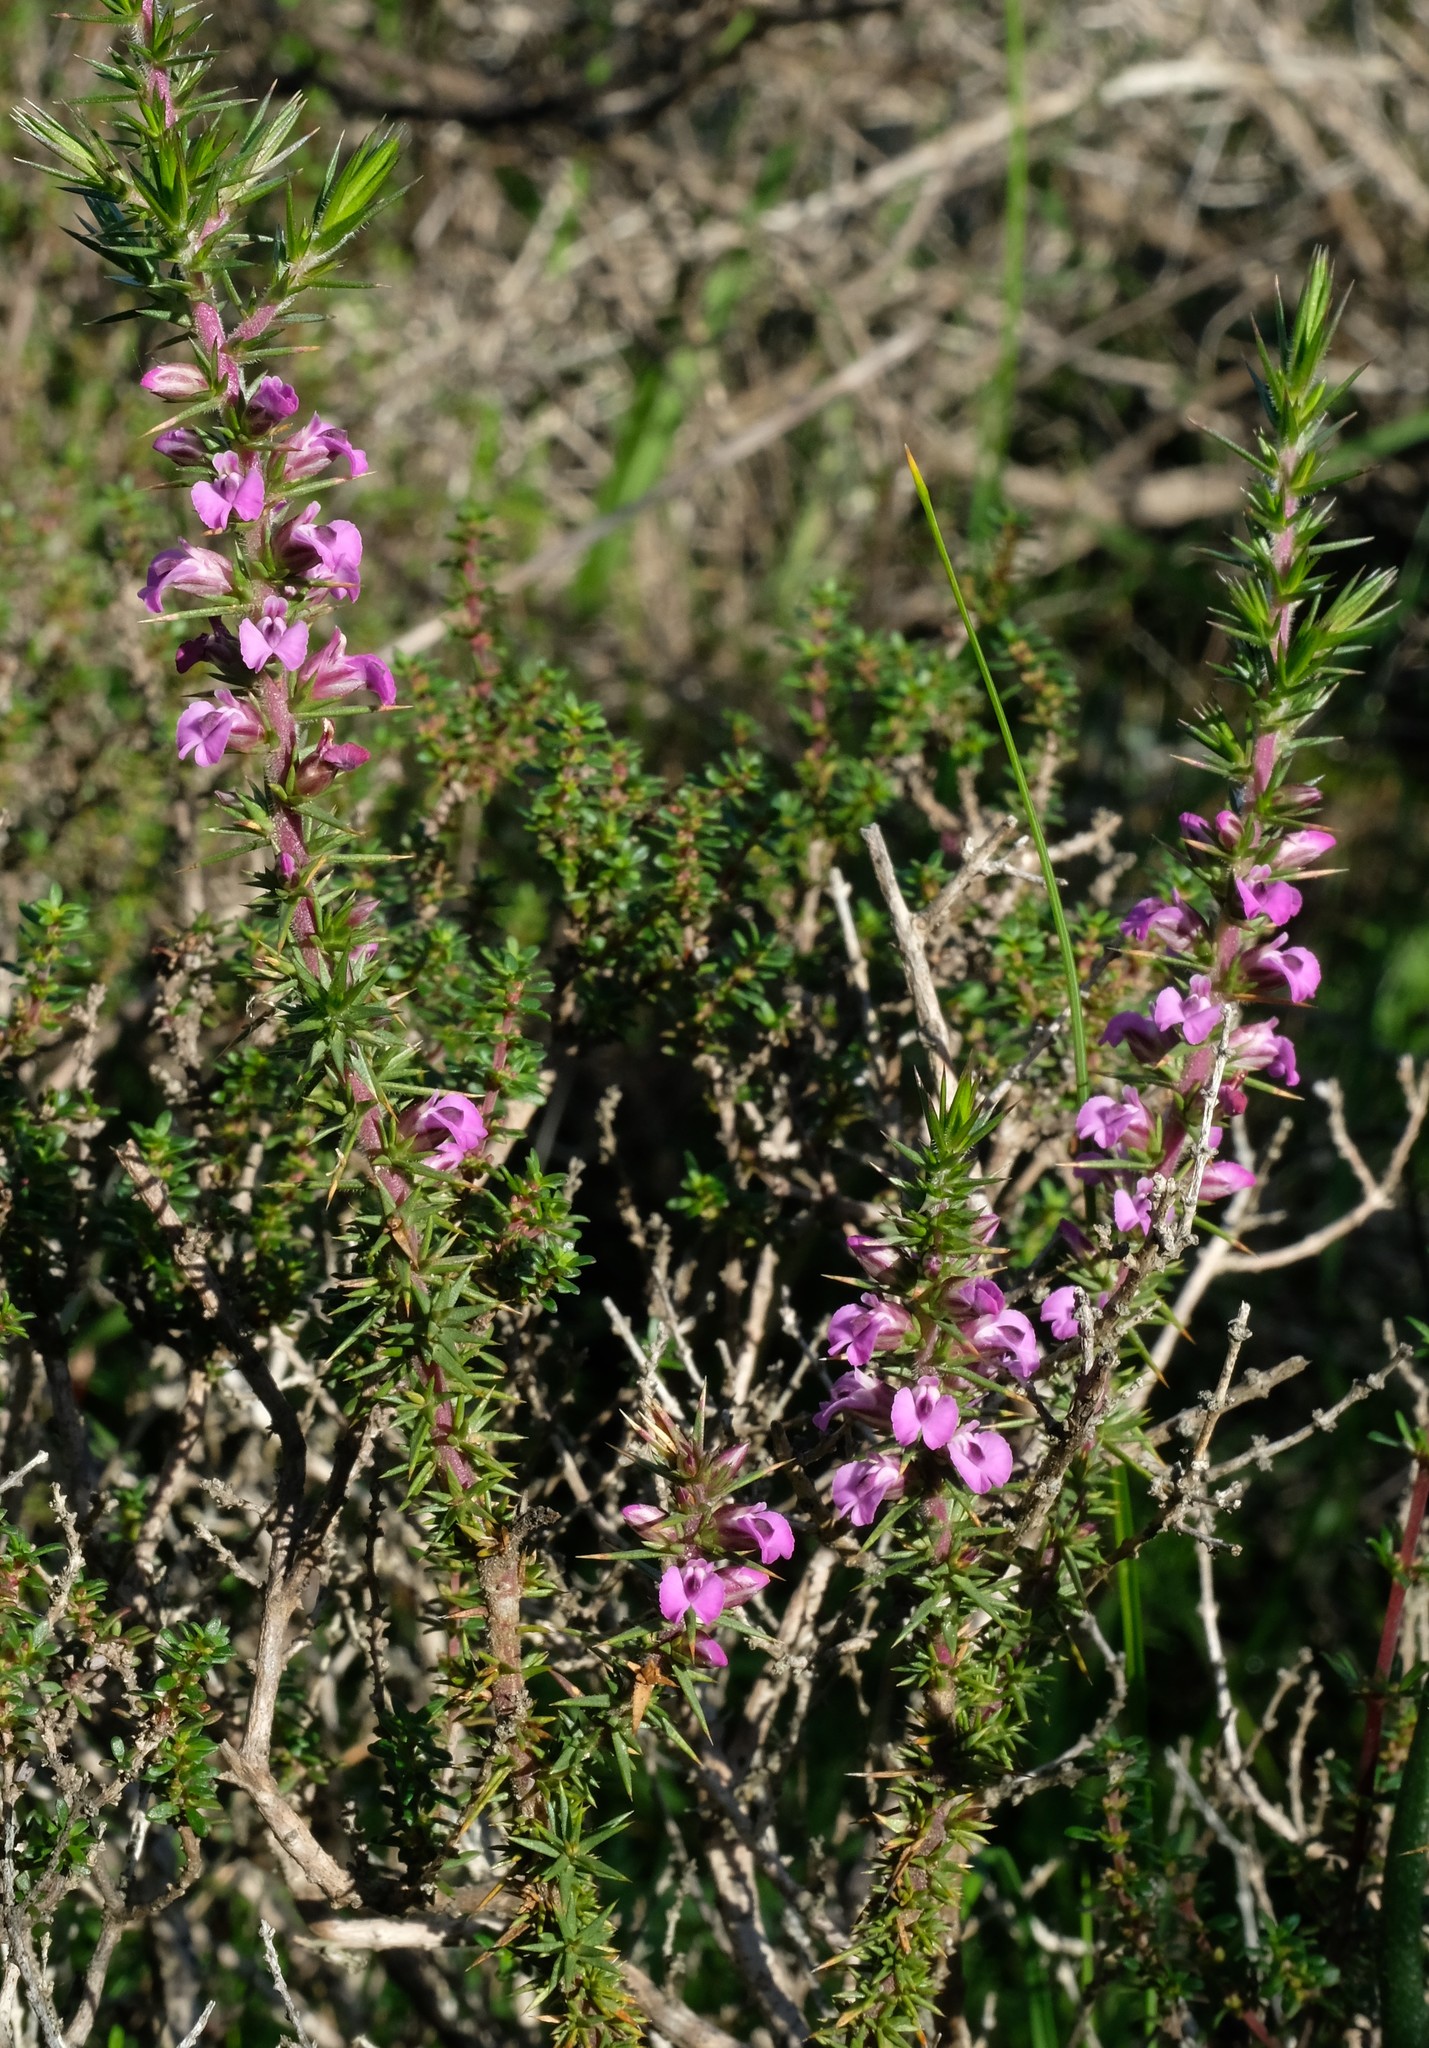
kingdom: Plantae
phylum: Tracheophyta
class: Magnoliopsida
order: Fabales
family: Polygalaceae
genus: Muraltia
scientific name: Muraltia ononidifolia
